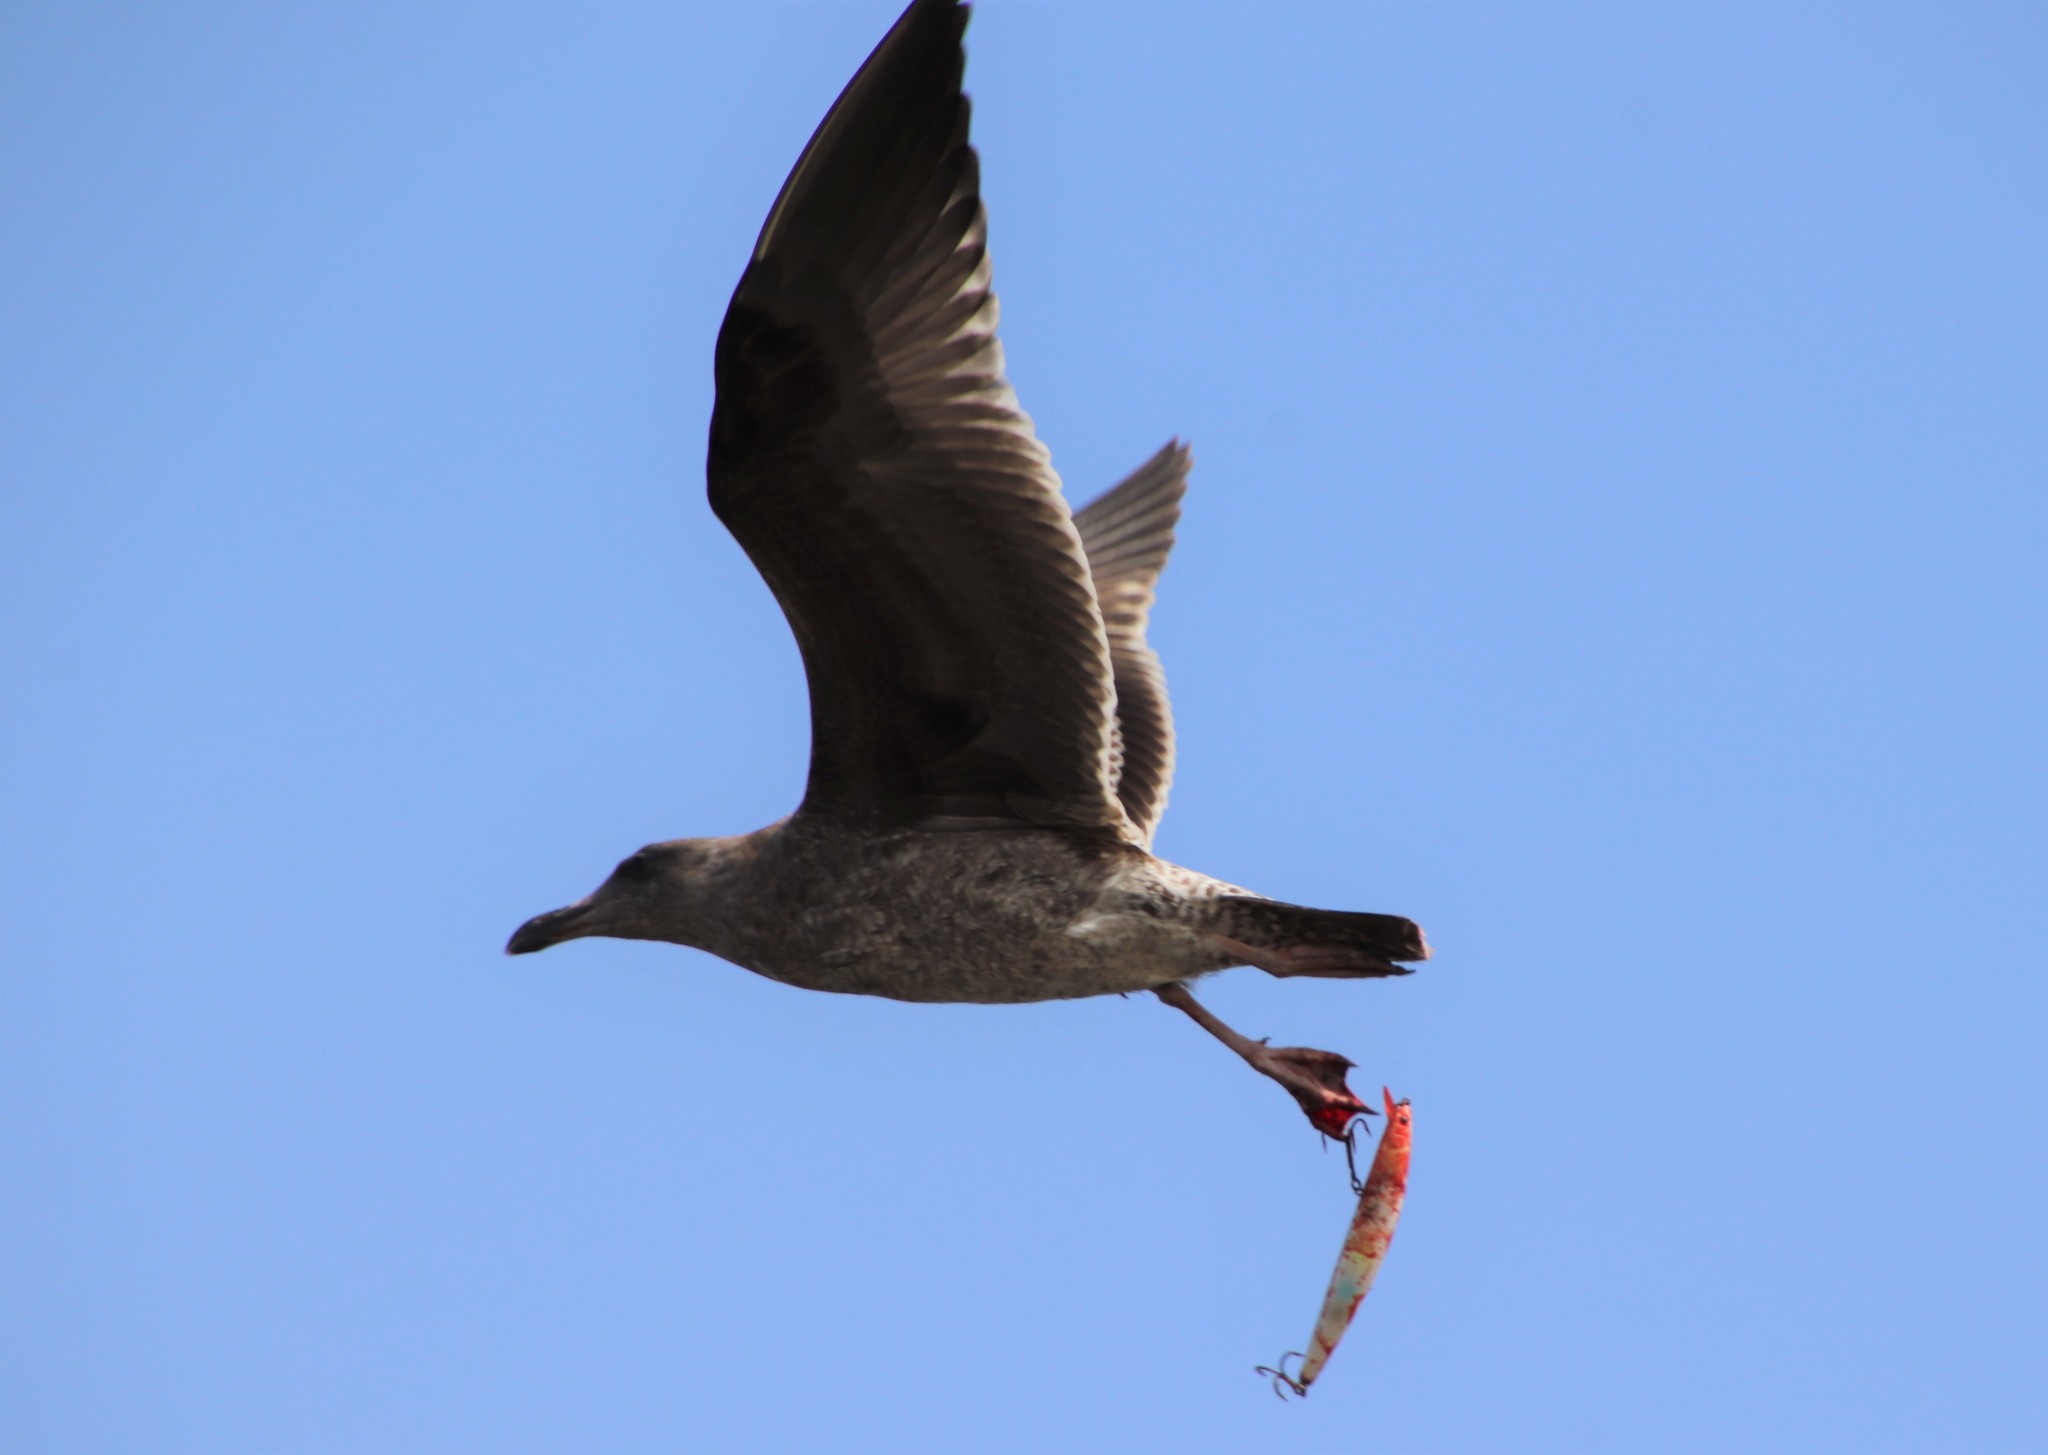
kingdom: Animalia
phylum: Chordata
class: Aves
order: Charadriiformes
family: Laridae
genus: Larus
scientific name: Larus occidentalis
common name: Western gull
